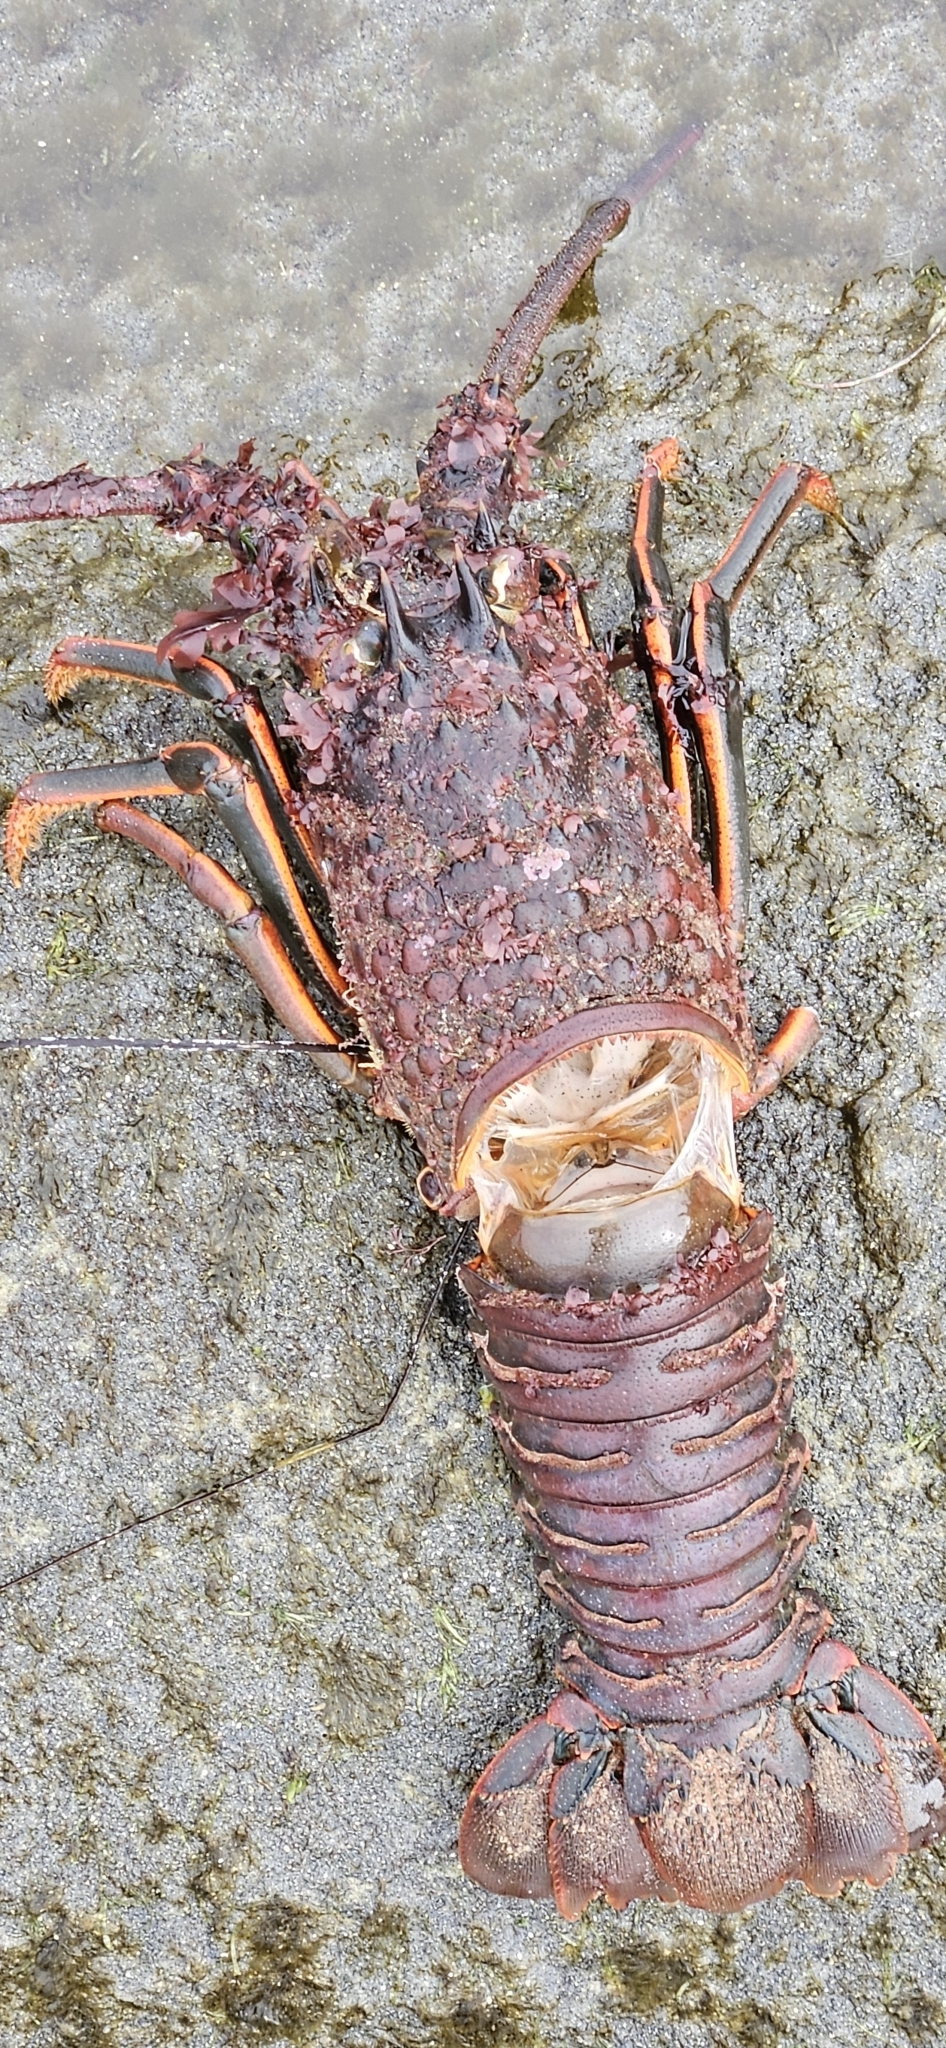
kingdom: Animalia
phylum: Arthropoda
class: Malacostraca
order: Decapoda
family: Palinuridae
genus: Panulirus
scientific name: Panulirus interruptus
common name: California spiny lobster
